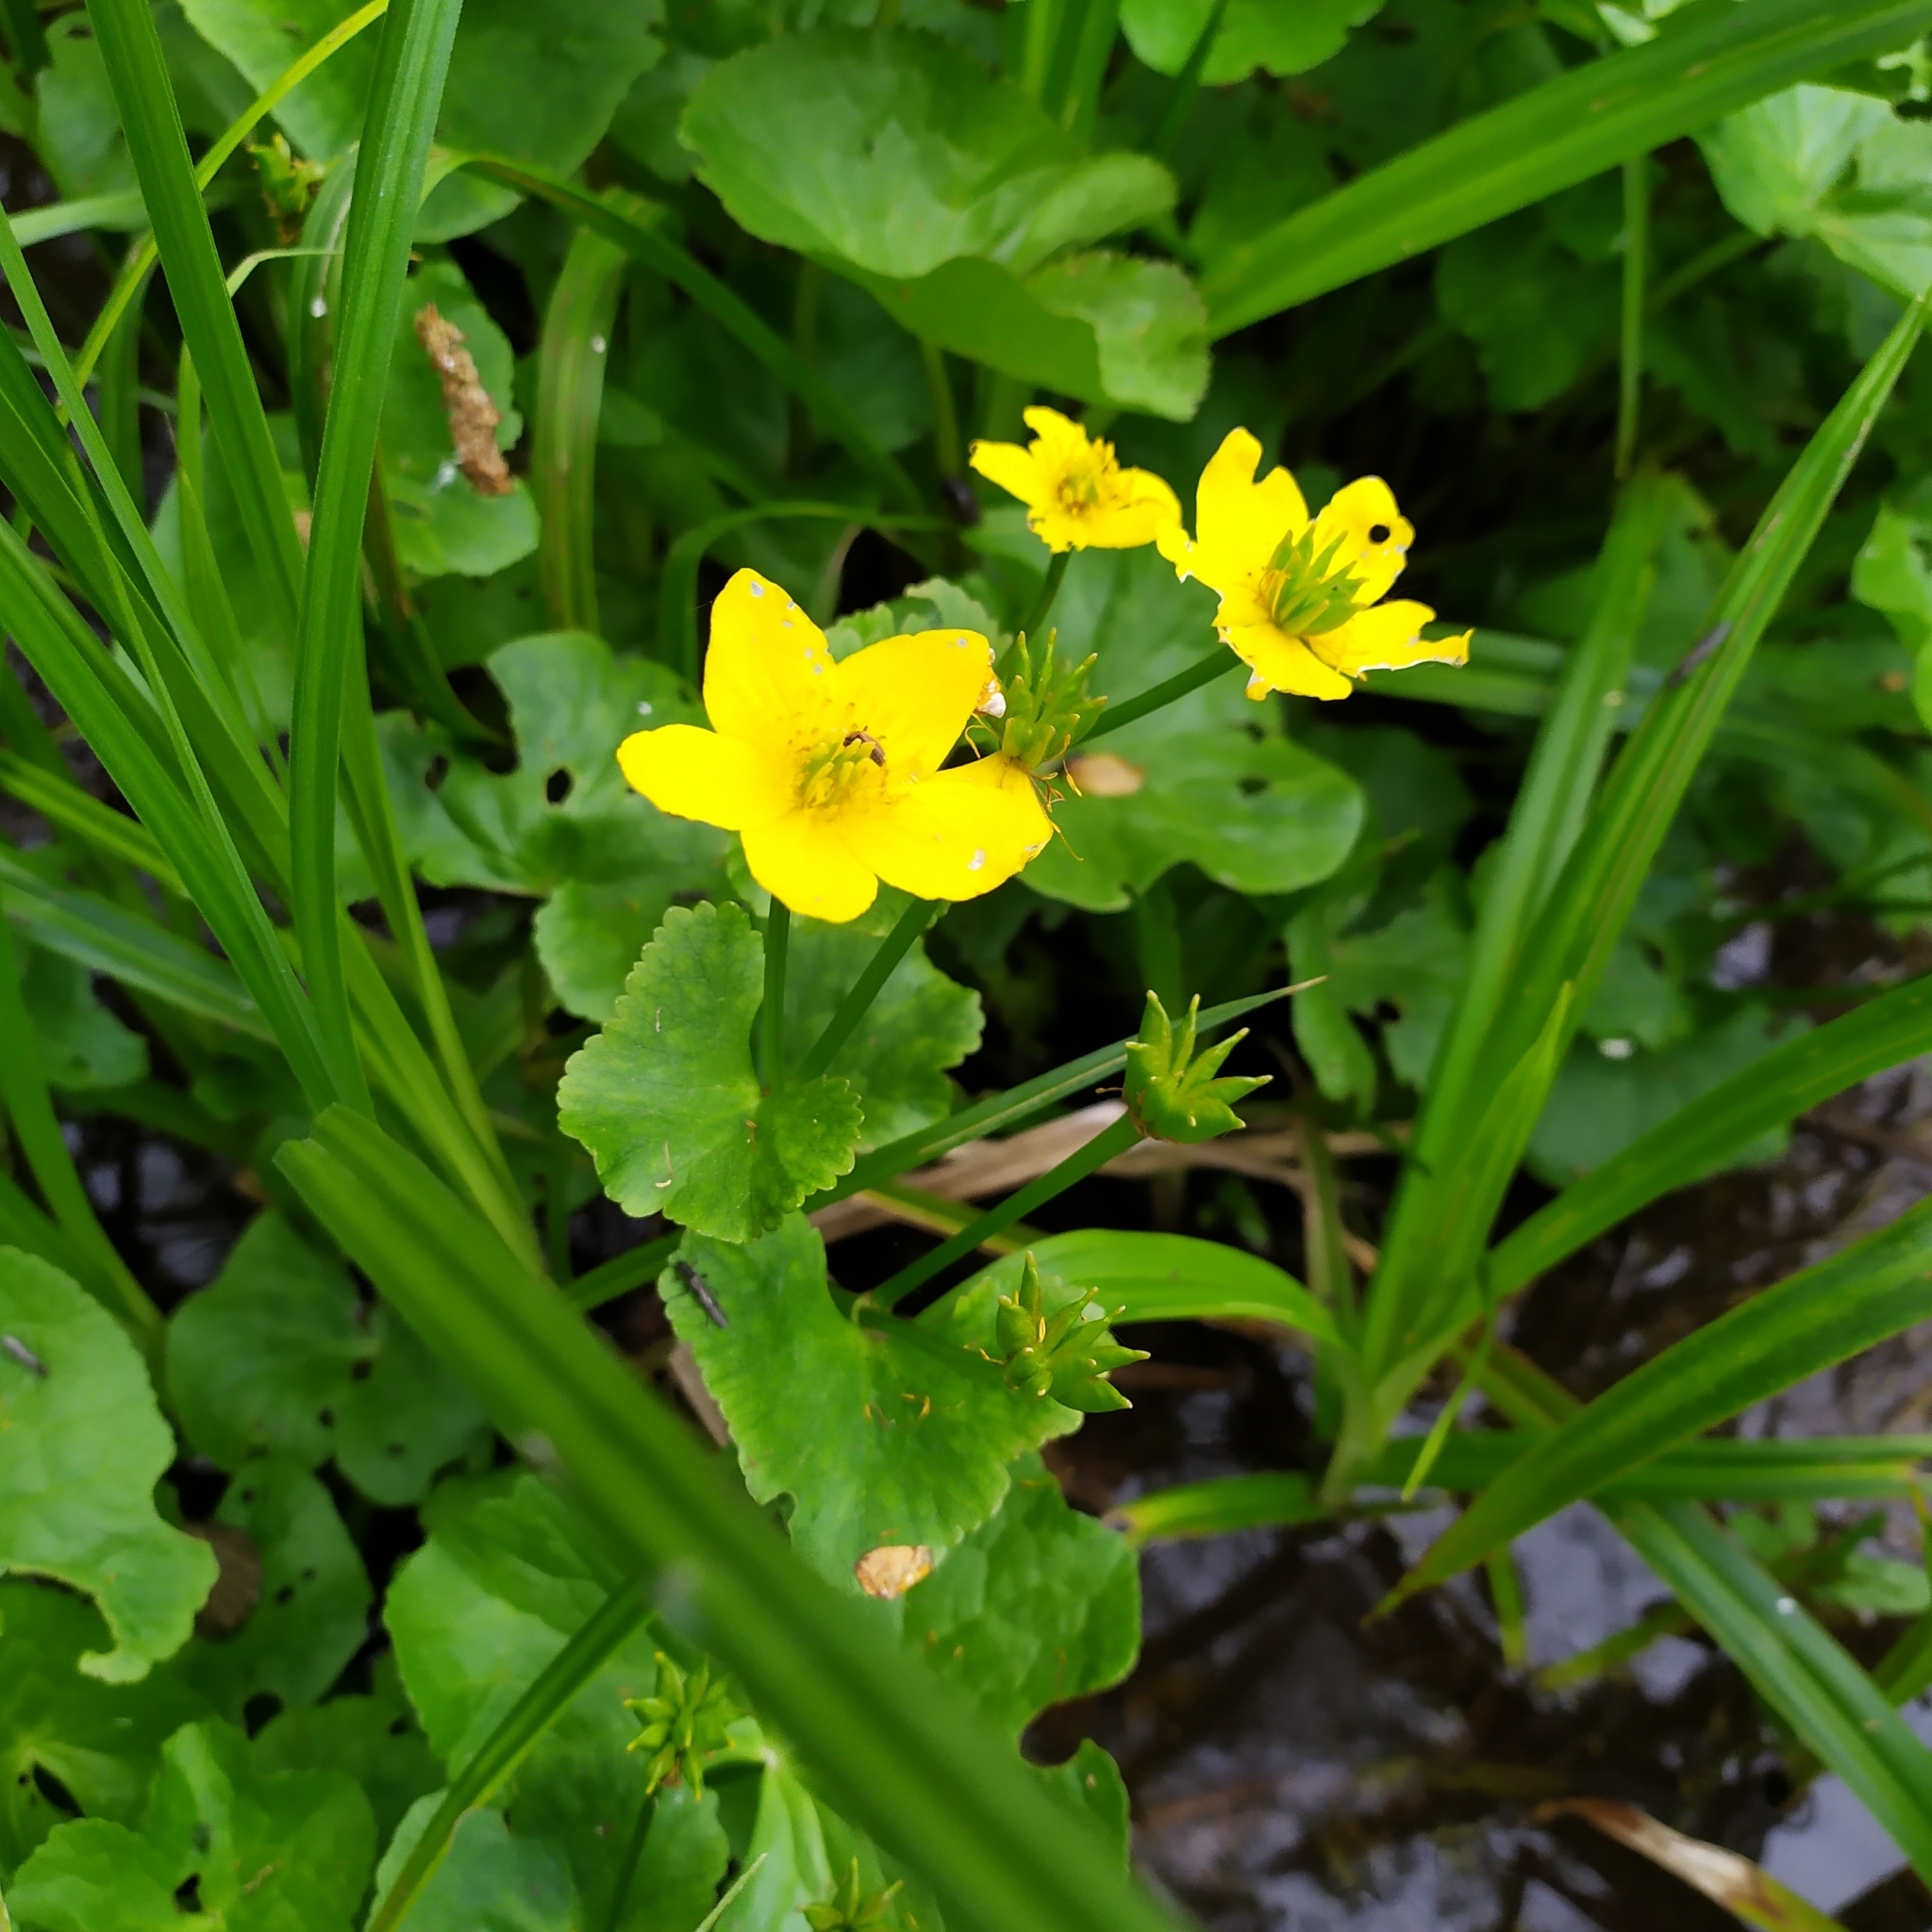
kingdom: Plantae
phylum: Tracheophyta
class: Magnoliopsida
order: Ranunculales
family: Ranunculaceae
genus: Caltha
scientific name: Caltha palustris
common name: Marsh marigold
